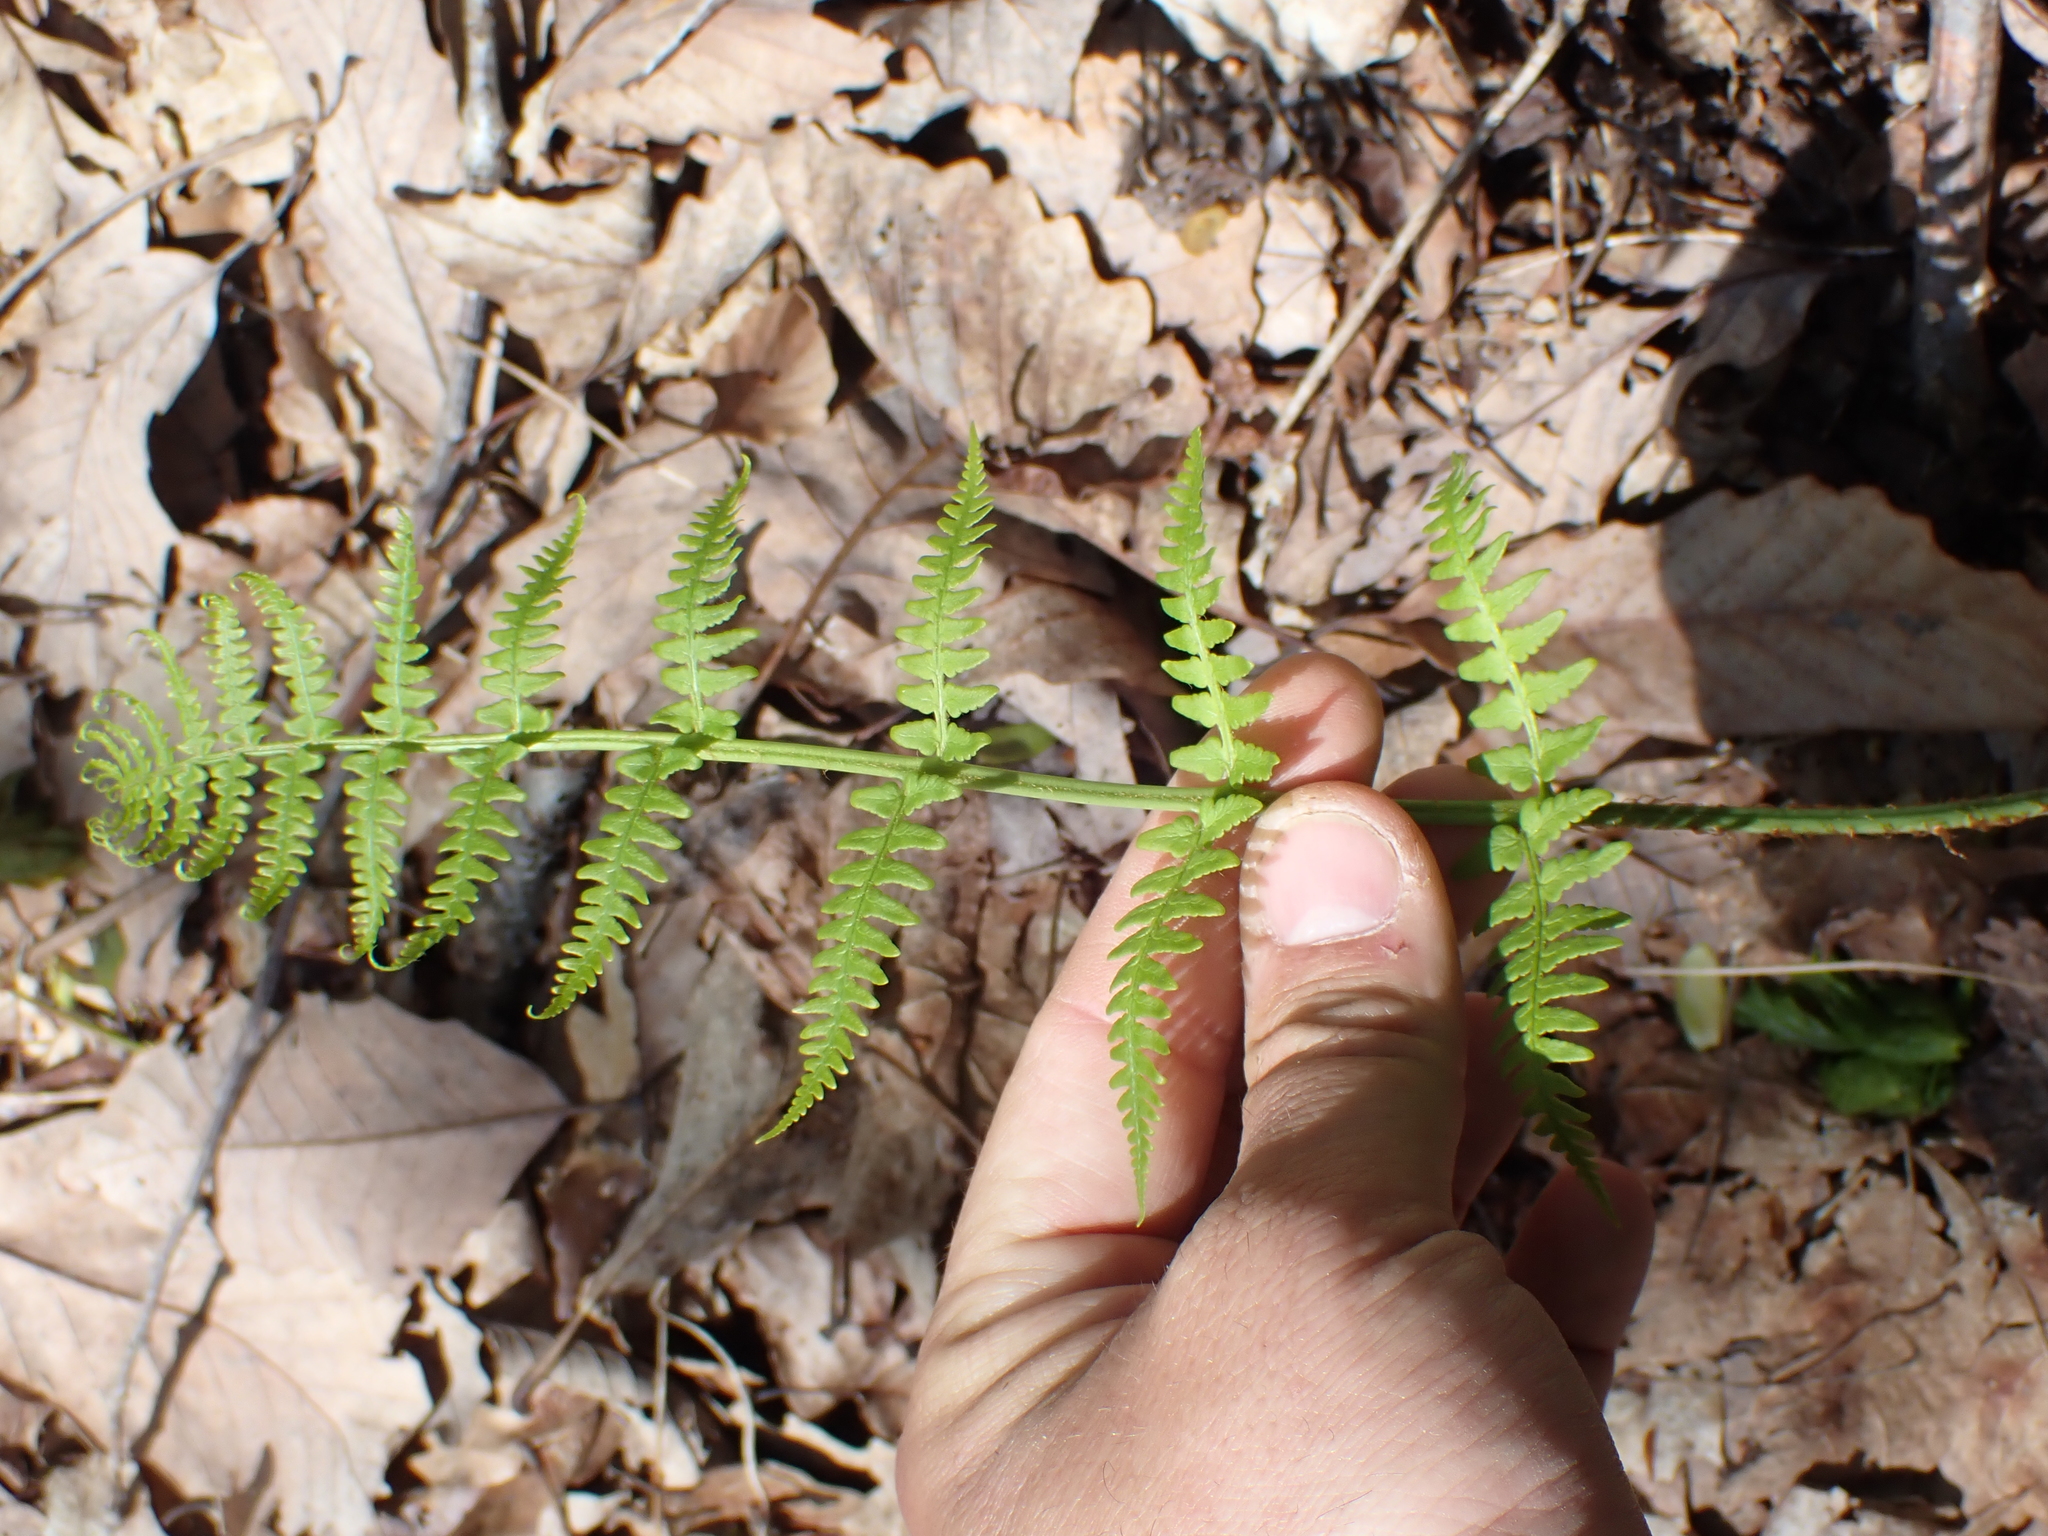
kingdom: Plantae
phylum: Tracheophyta
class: Polypodiopsida
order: Polypodiales
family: Dryopteridaceae
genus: Dryopteris
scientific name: Dryopteris marginalis
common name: Marginal wood fern
